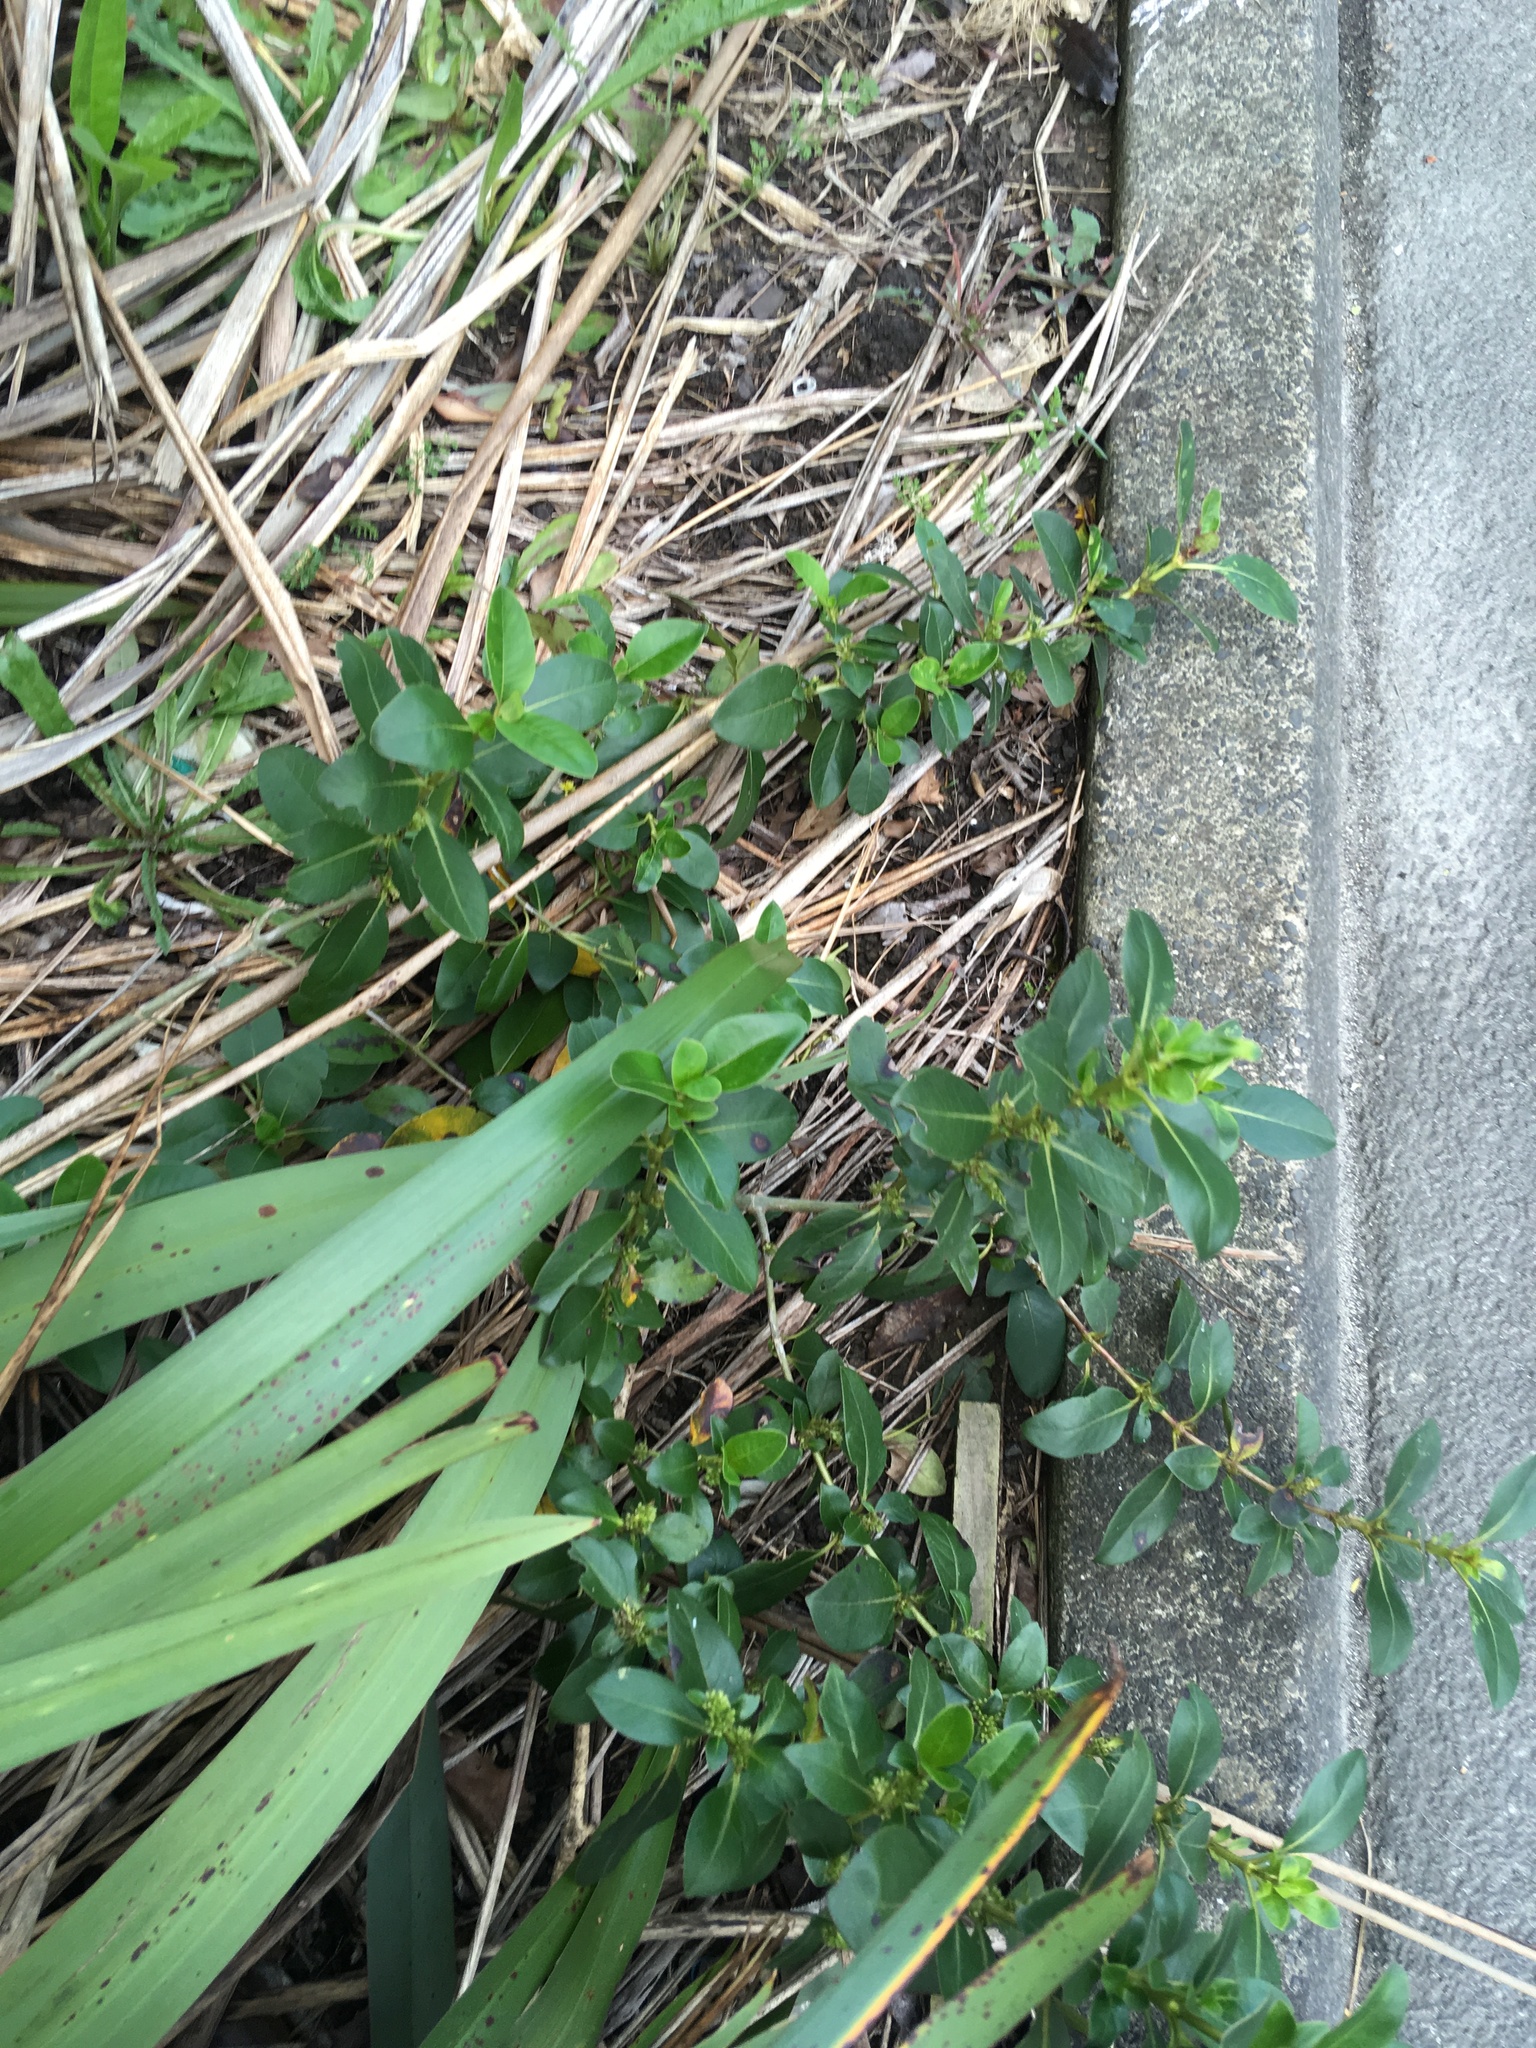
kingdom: Plantae
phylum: Tracheophyta
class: Magnoliopsida
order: Gentianales
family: Rubiaceae
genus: Coprosma
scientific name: Coprosma robusta
